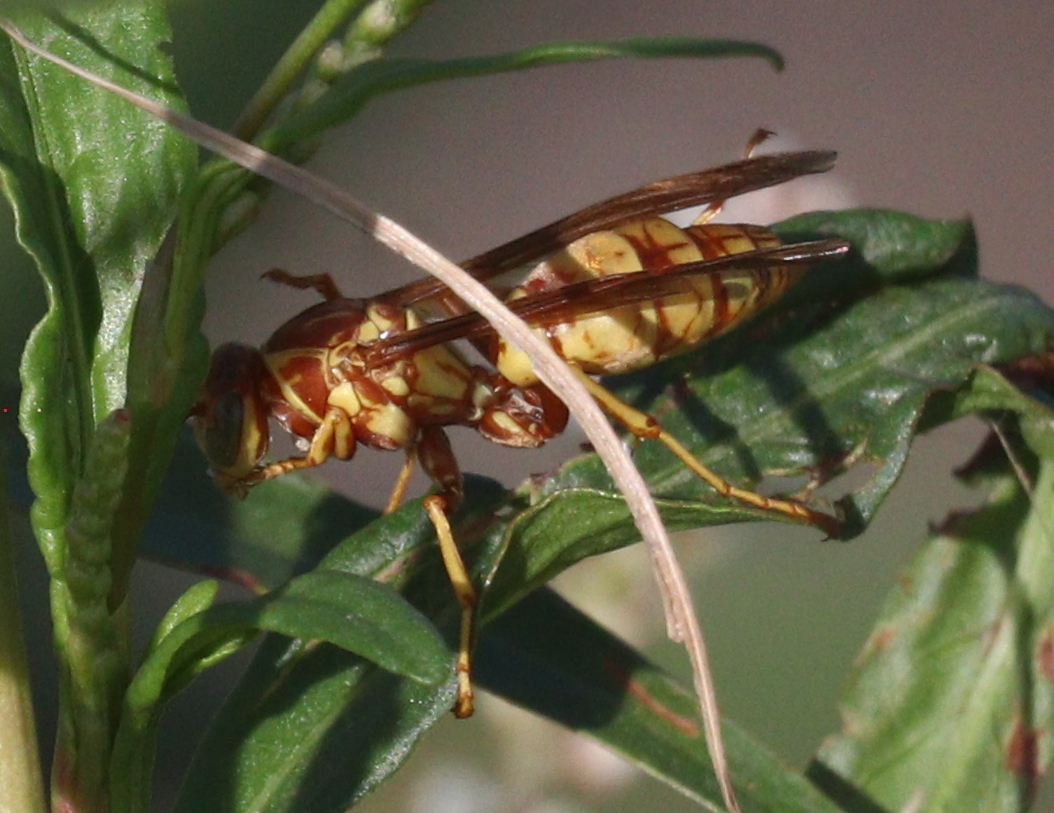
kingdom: Animalia
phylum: Arthropoda
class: Insecta
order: Hymenoptera
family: Eumenidae
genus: Polistes
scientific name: Polistes aurifer
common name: Paper wasp
